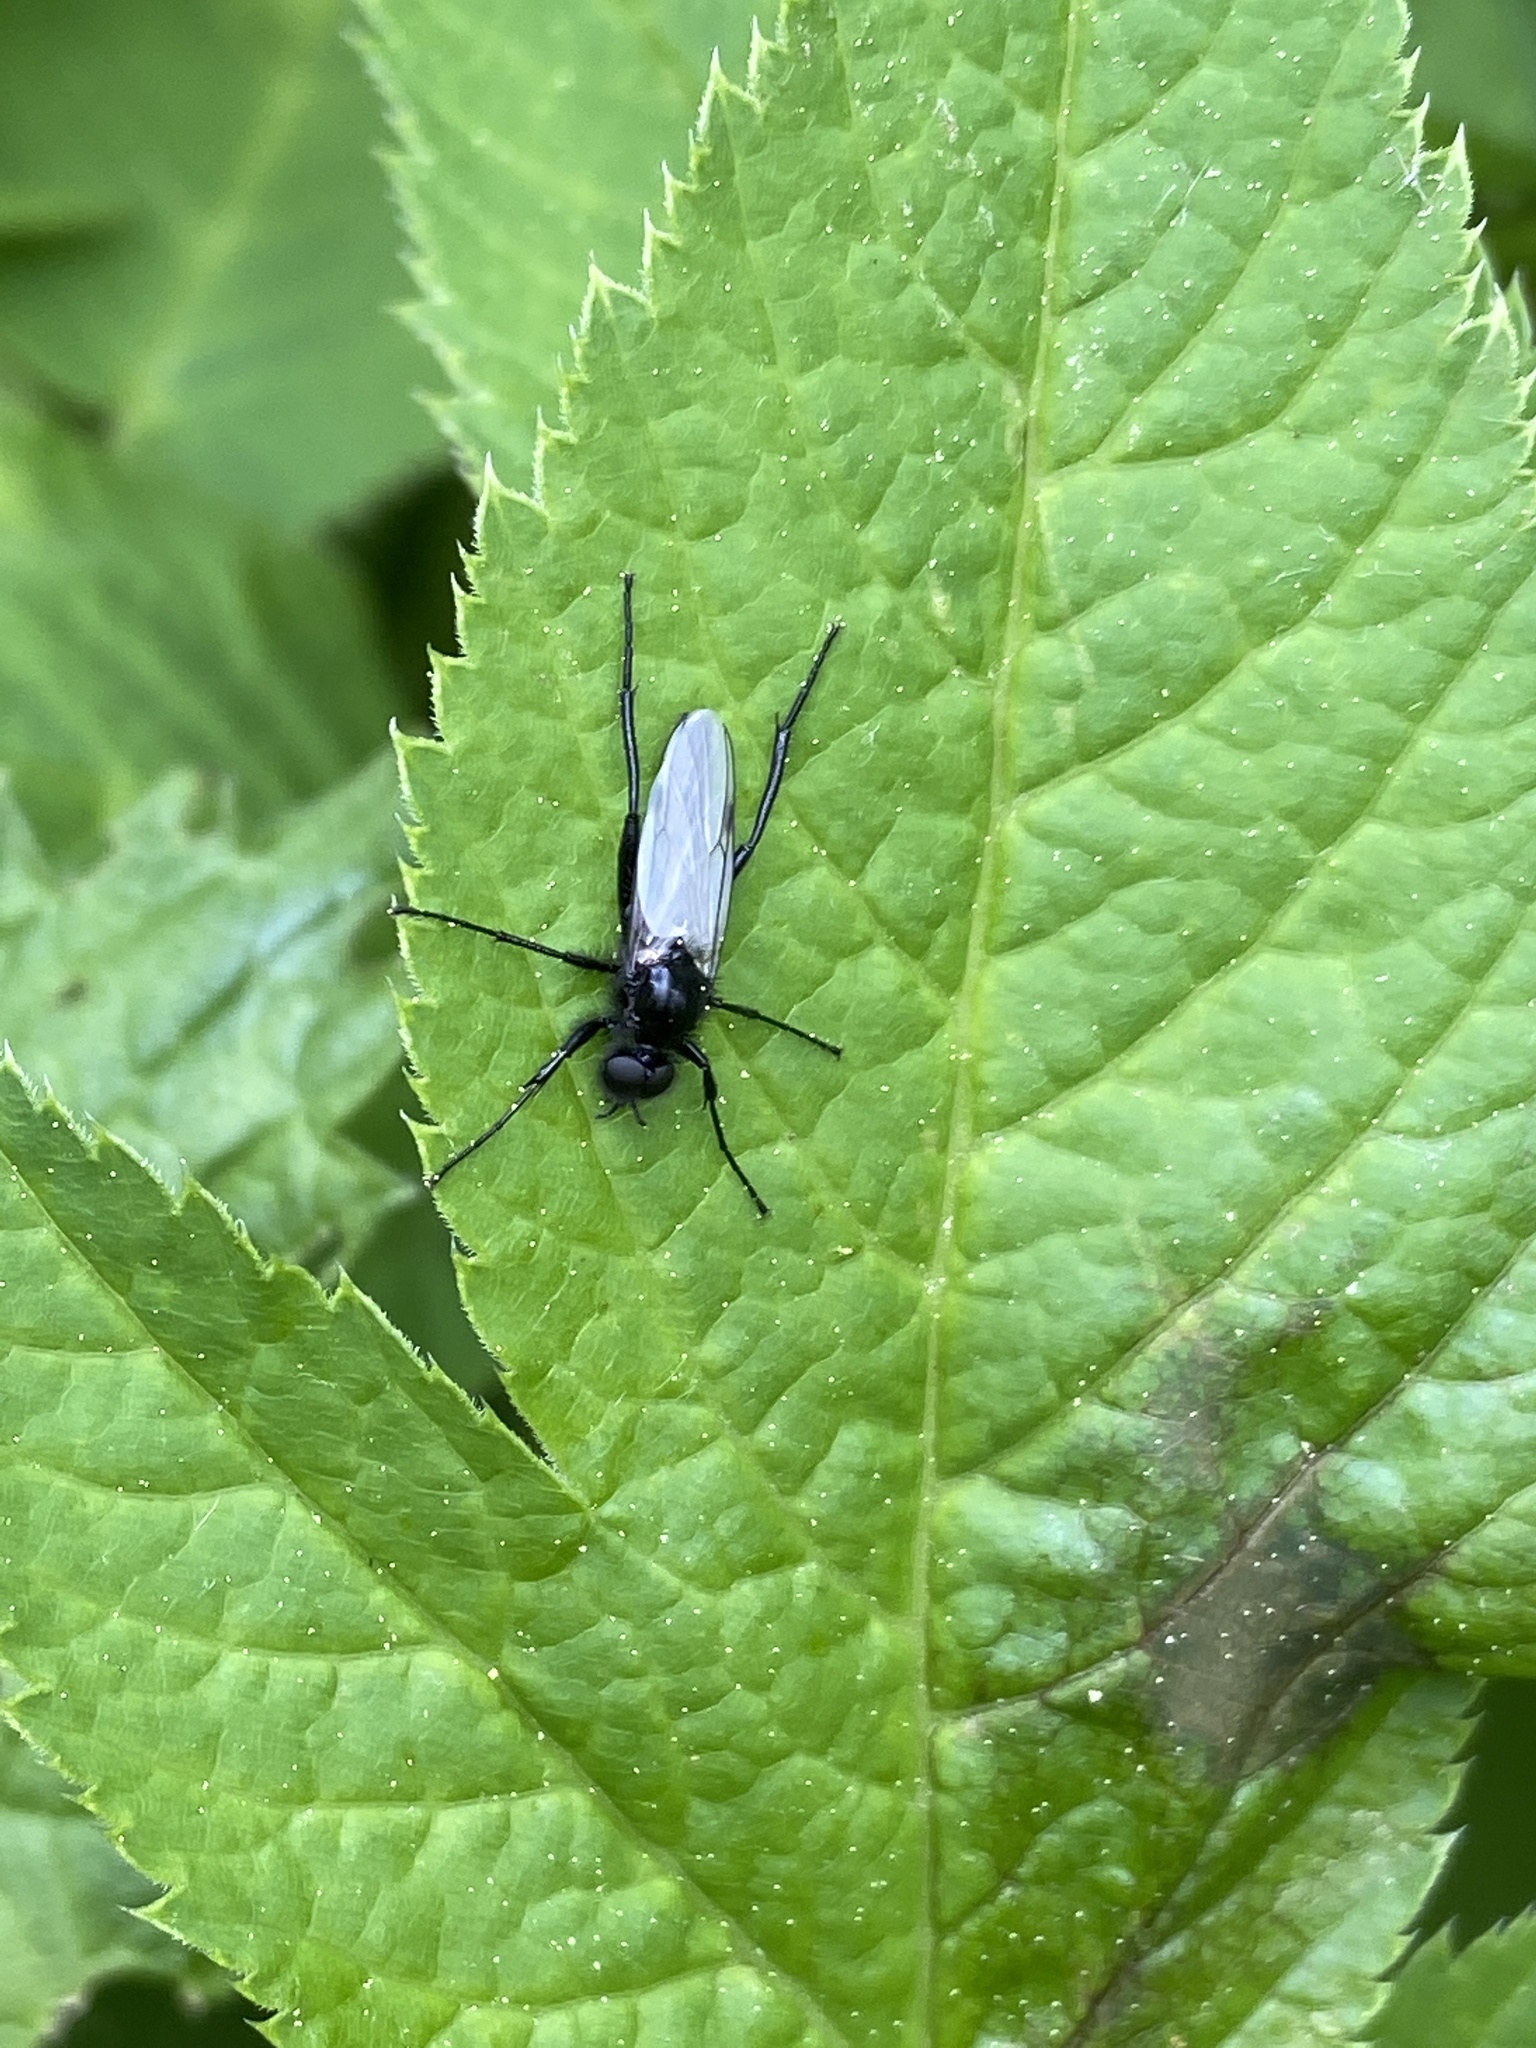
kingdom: Animalia
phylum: Arthropoda
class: Insecta
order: Diptera
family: Bibionidae
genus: Bibio
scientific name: Bibio marci
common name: St marks fly
